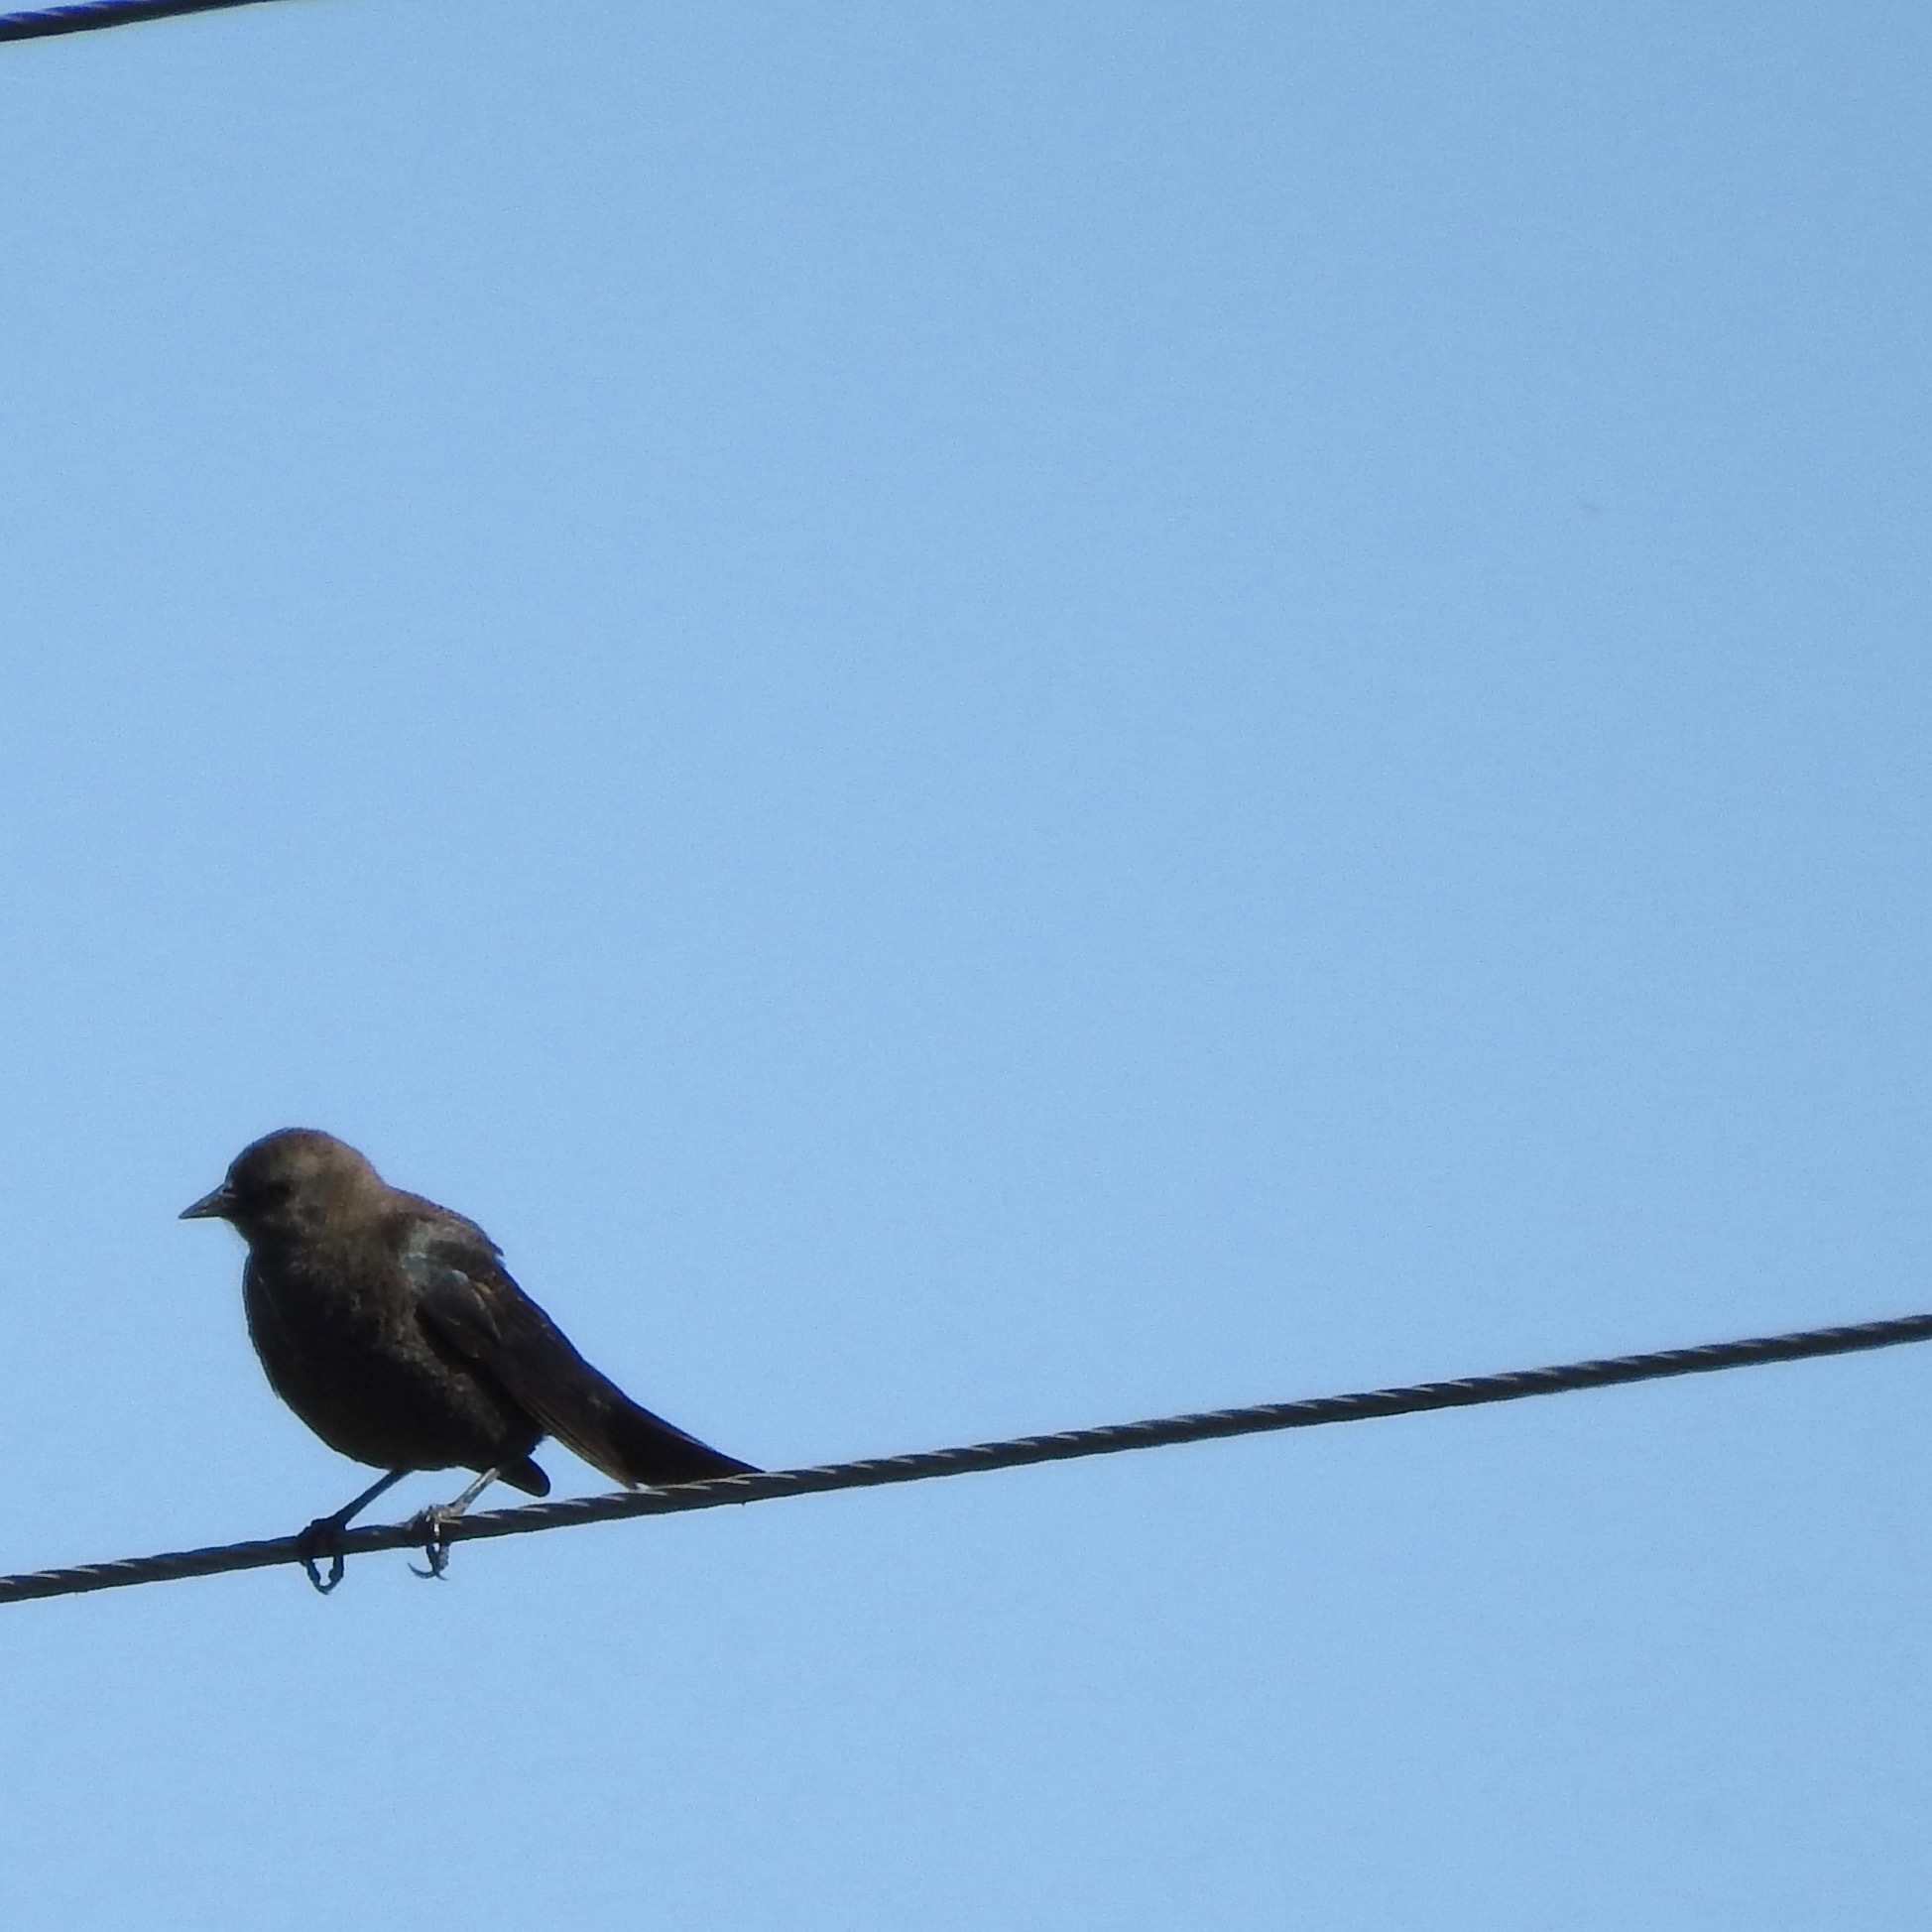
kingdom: Animalia
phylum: Chordata
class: Aves
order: Passeriformes
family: Icteridae
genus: Euphagus
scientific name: Euphagus cyanocephalus
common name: Brewer's blackbird
